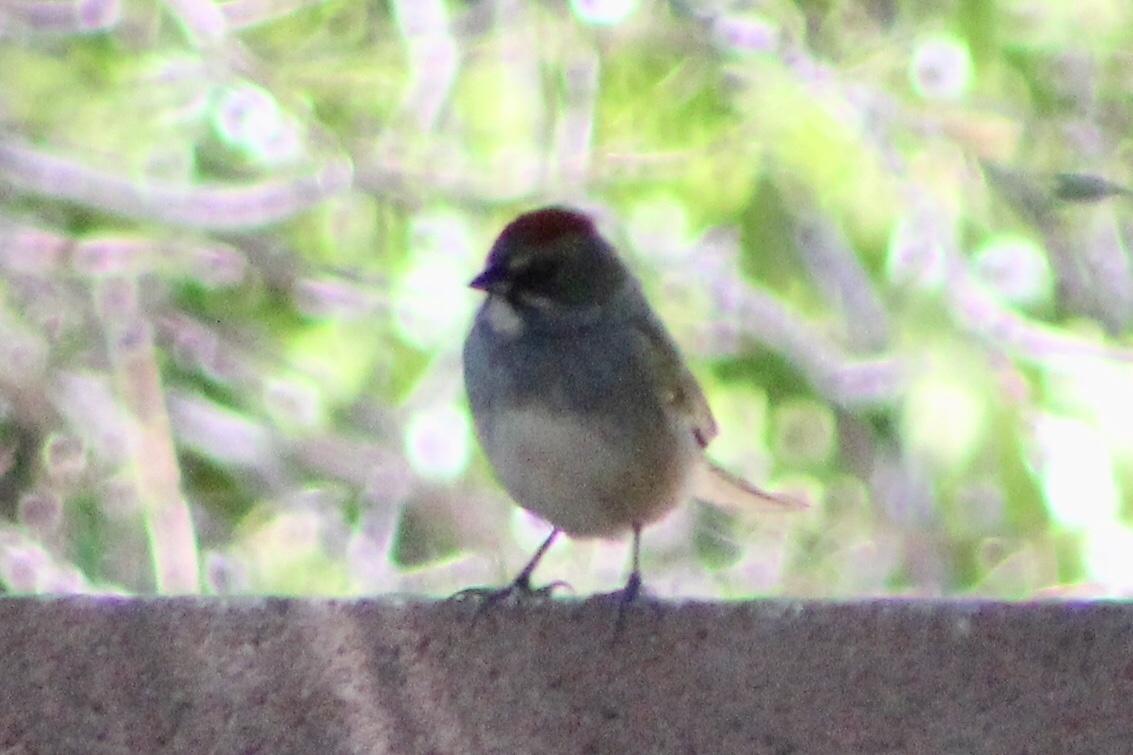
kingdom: Animalia
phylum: Chordata
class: Aves
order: Passeriformes
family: Passerellidae
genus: Pipilo
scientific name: Pipilo chlorurus
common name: Green-tailed towhee
